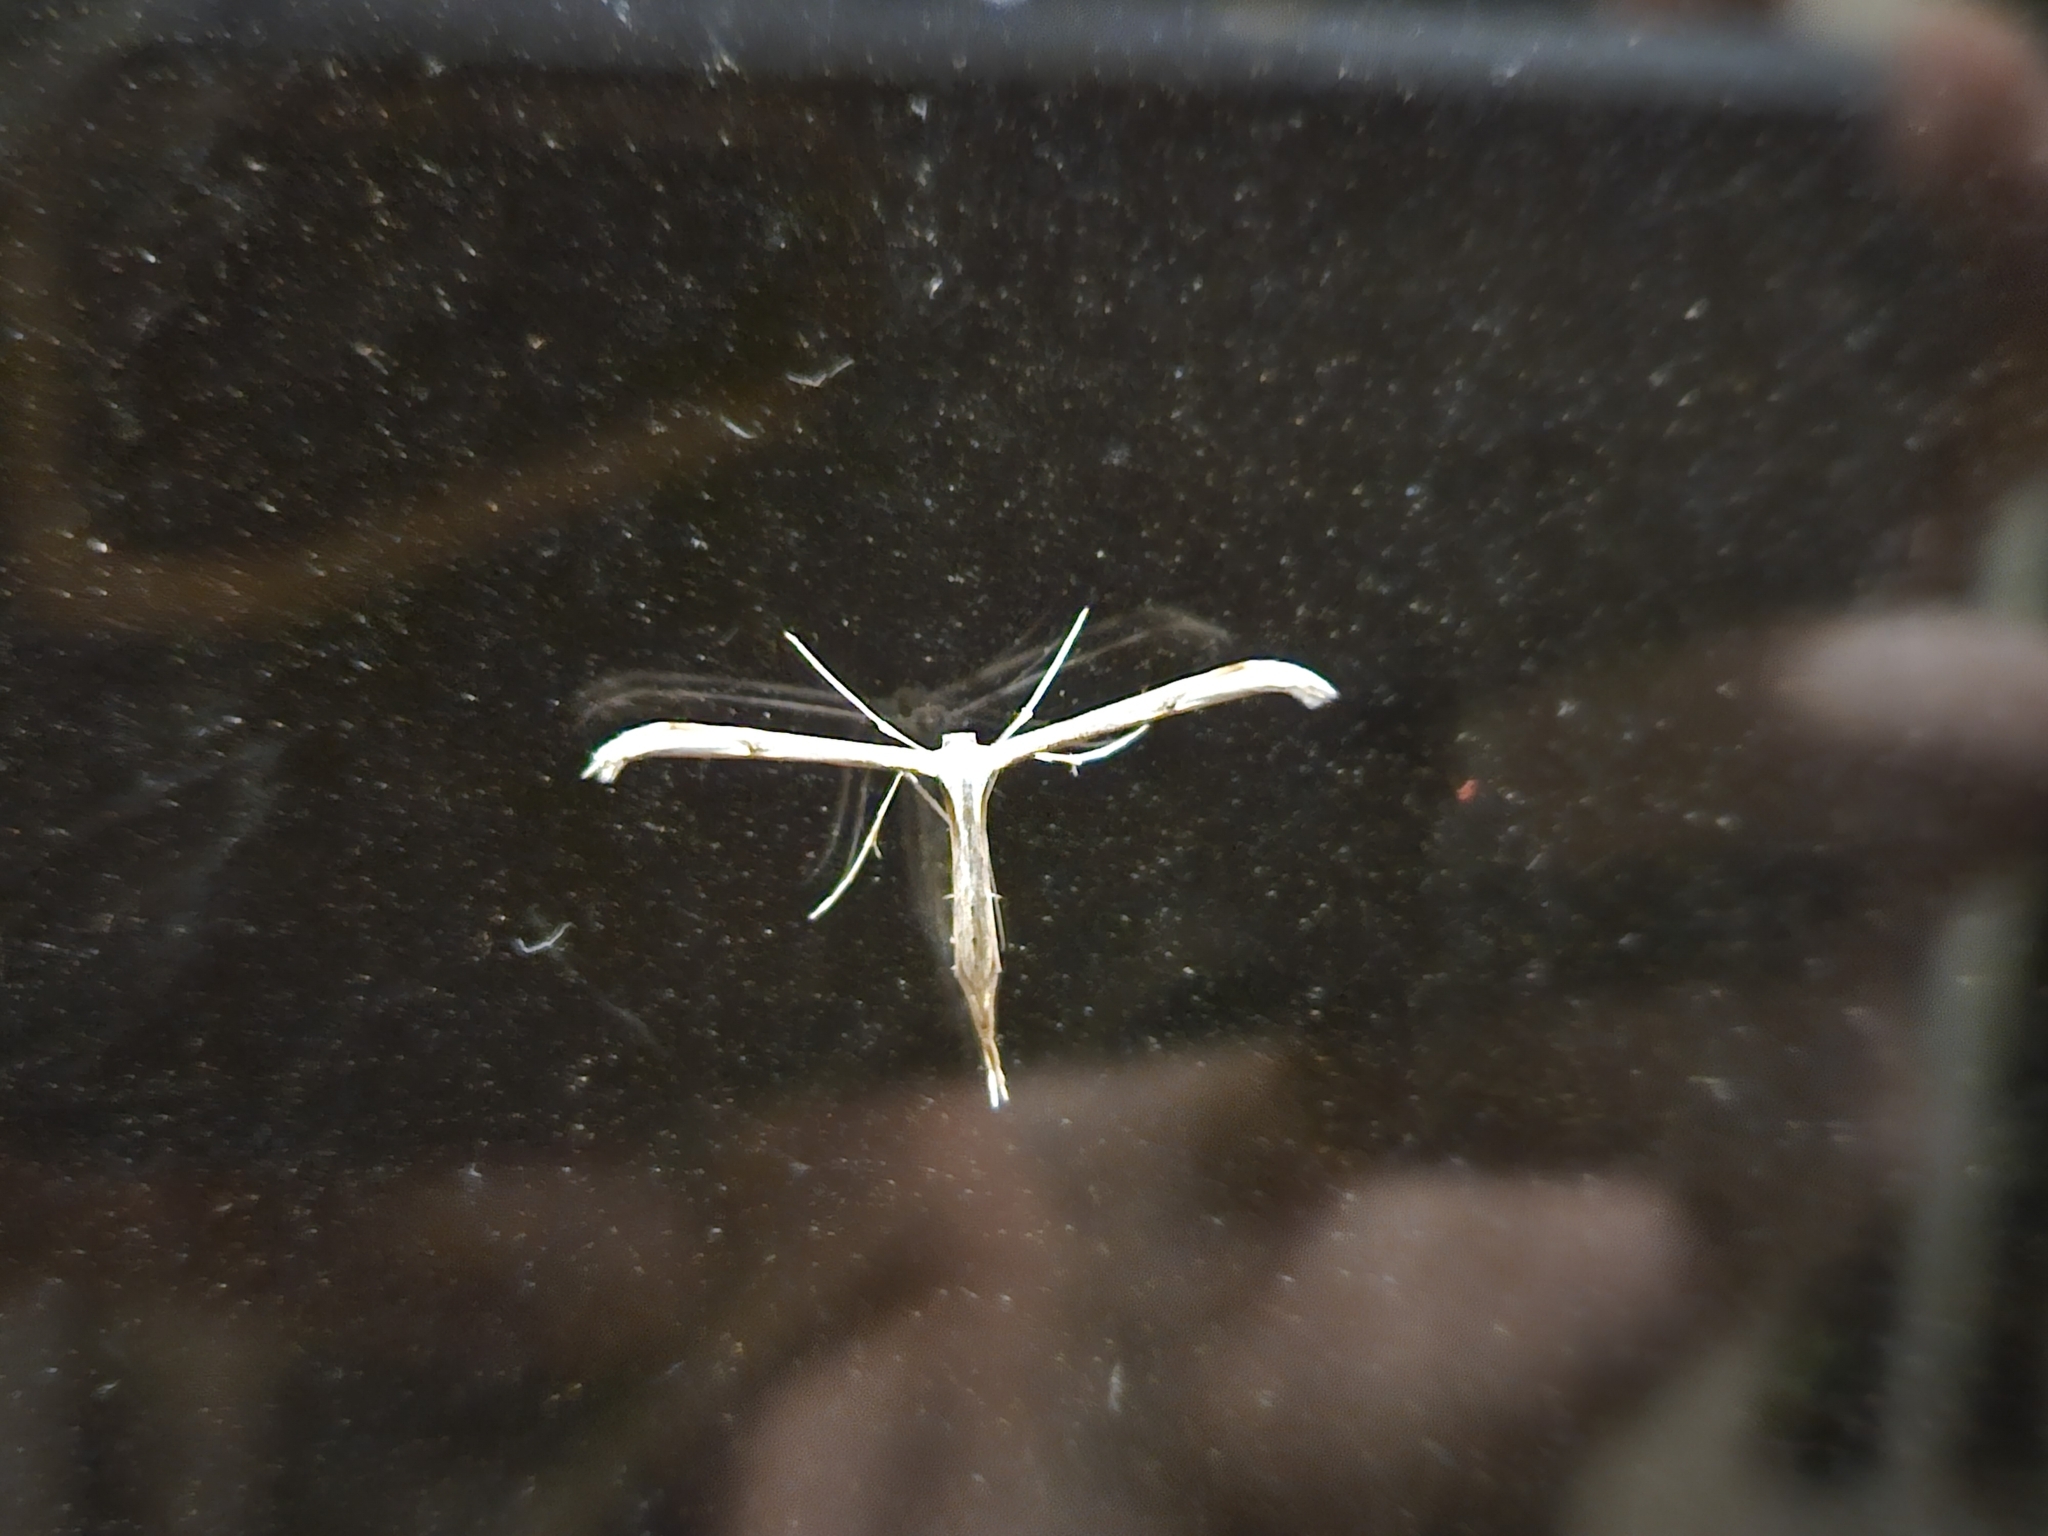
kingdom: Animalia
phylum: Arthropoda
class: Insecta
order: Lepidoptera
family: Pterophoridae
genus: Emmelina
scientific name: Emmelina monodactyla
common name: Common plume
